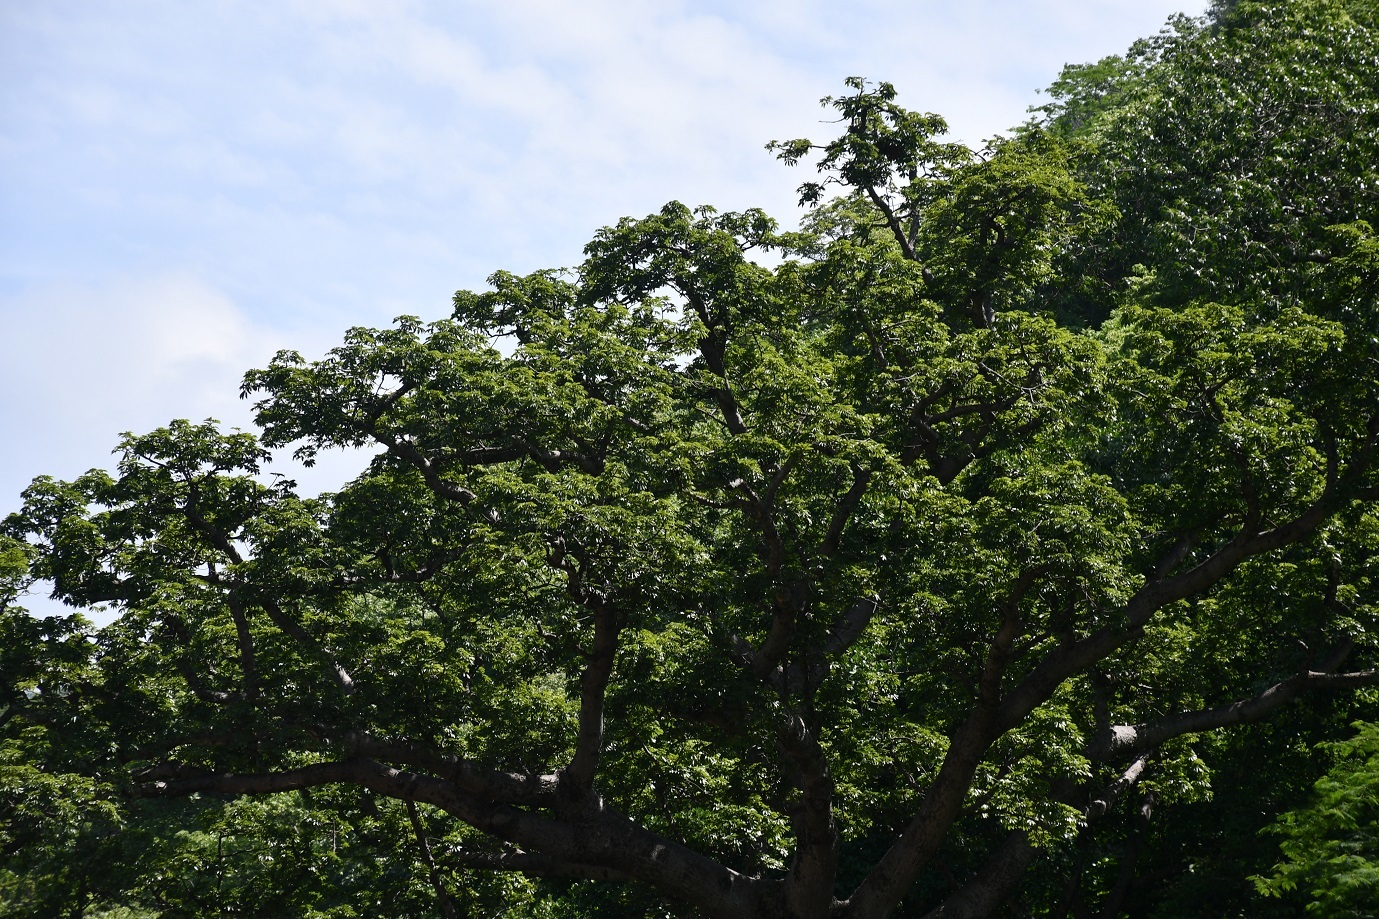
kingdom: Plantae
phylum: Tracheophyta
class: Magnoliopsida
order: Malvales
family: Malvaceae
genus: Ceiba
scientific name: Ceiba pentandra
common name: Kapok
